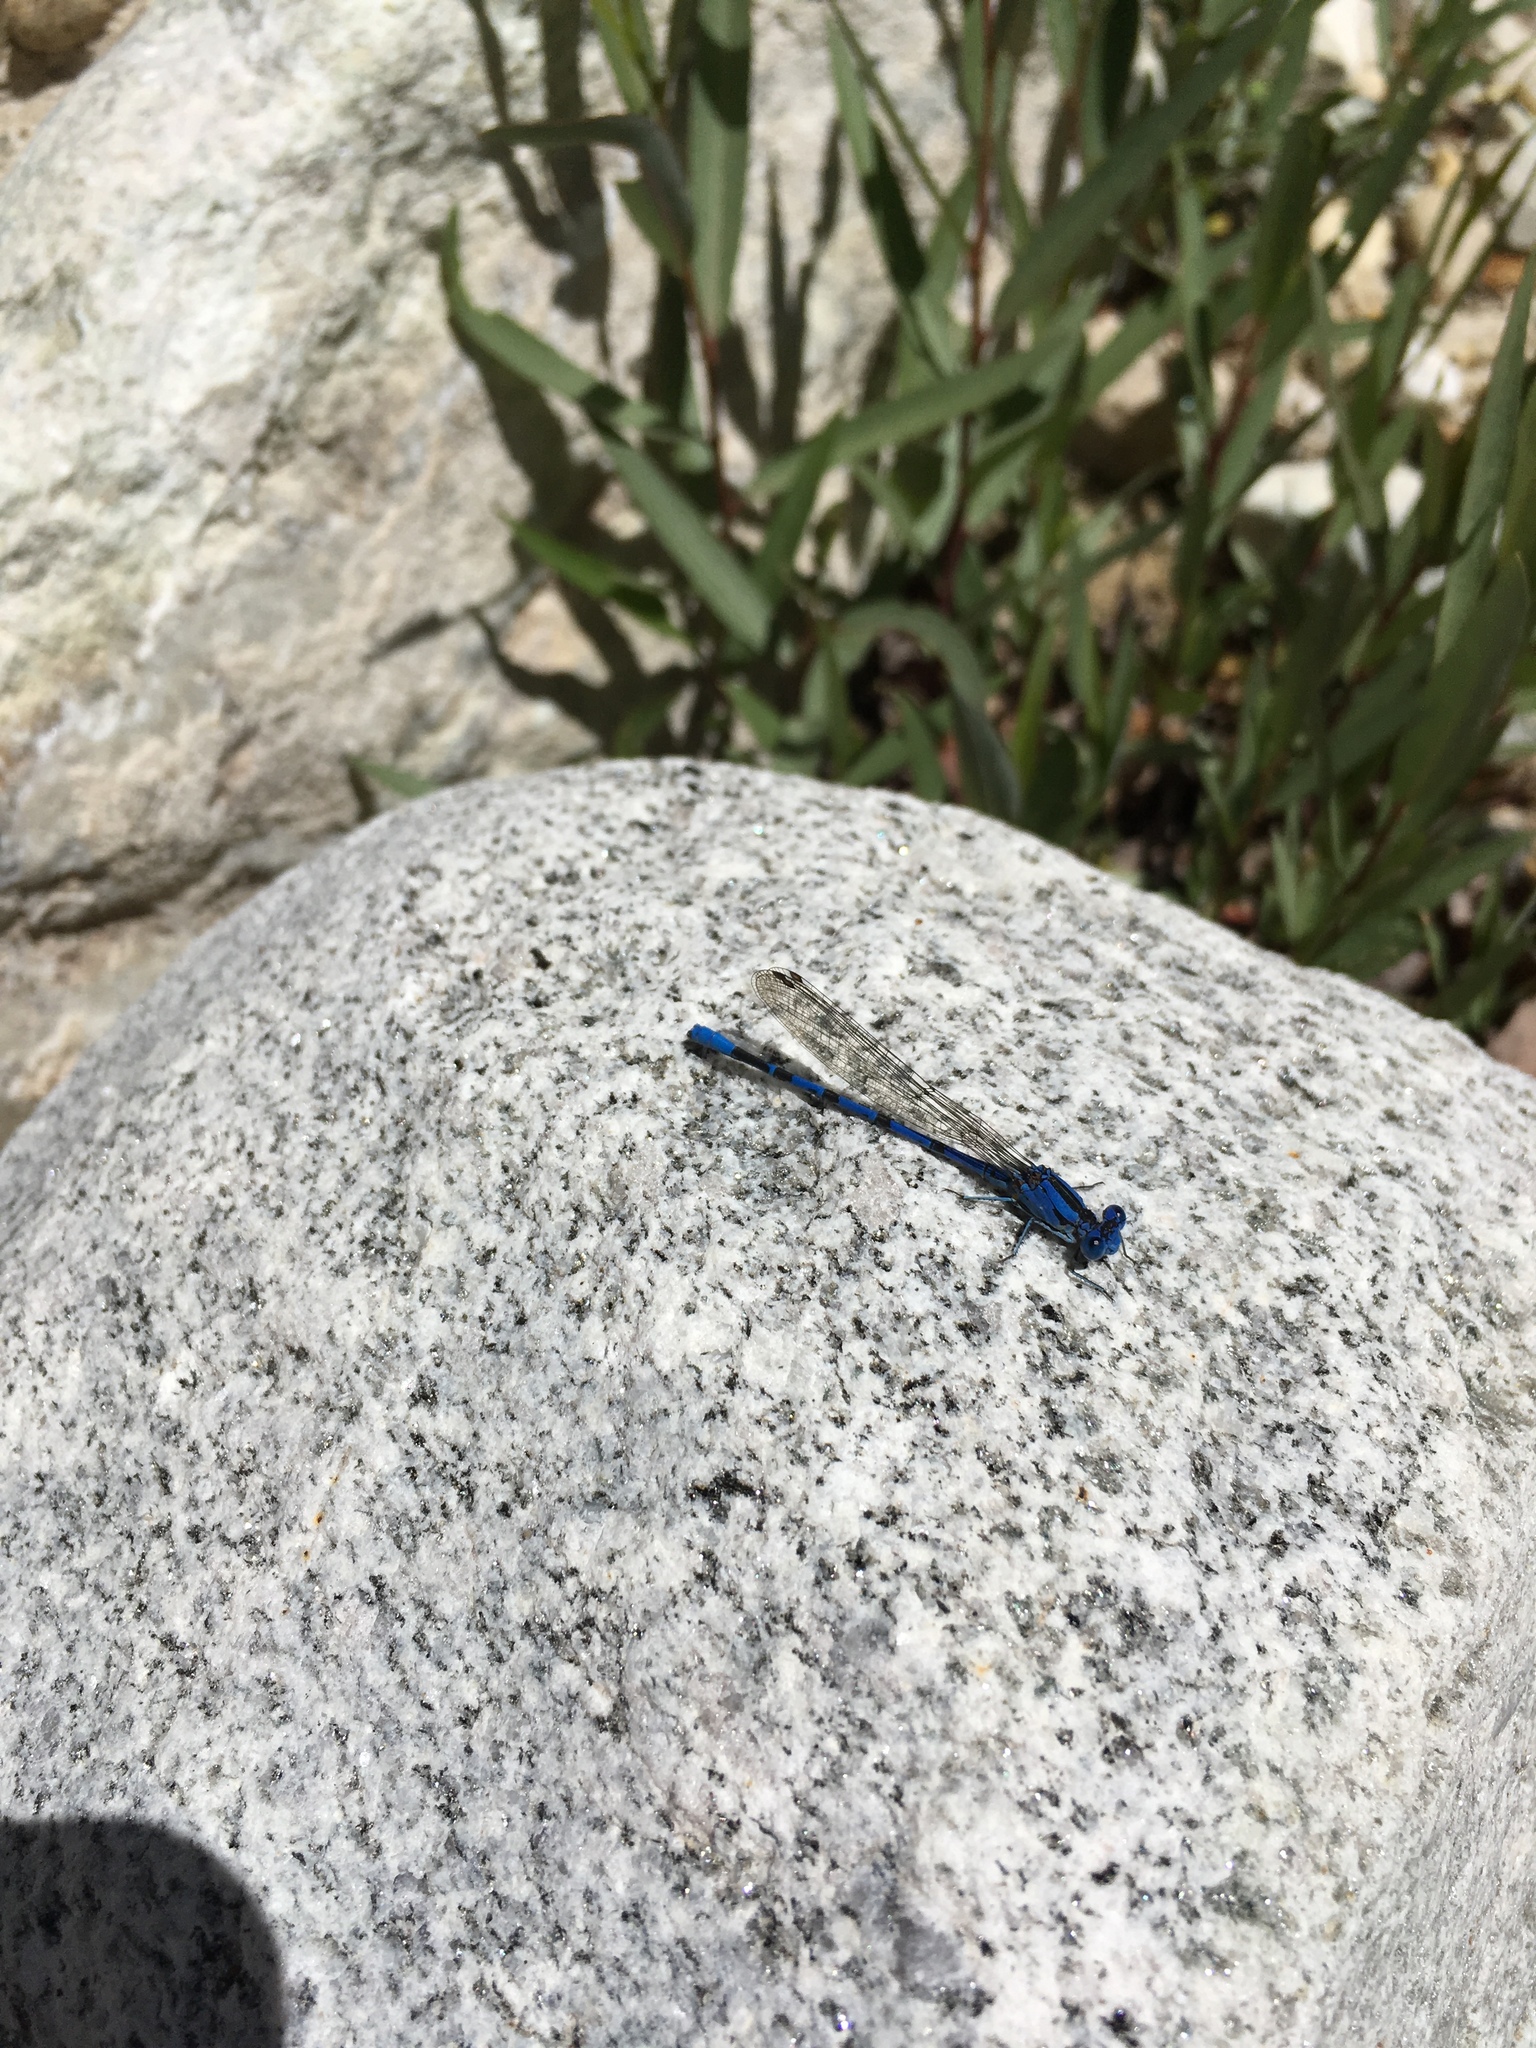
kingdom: Animalia
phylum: Arthropoda
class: Insecta
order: Odonata
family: Coenagrionidae
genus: Argia
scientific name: Argia vivida
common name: Vivid dancer
